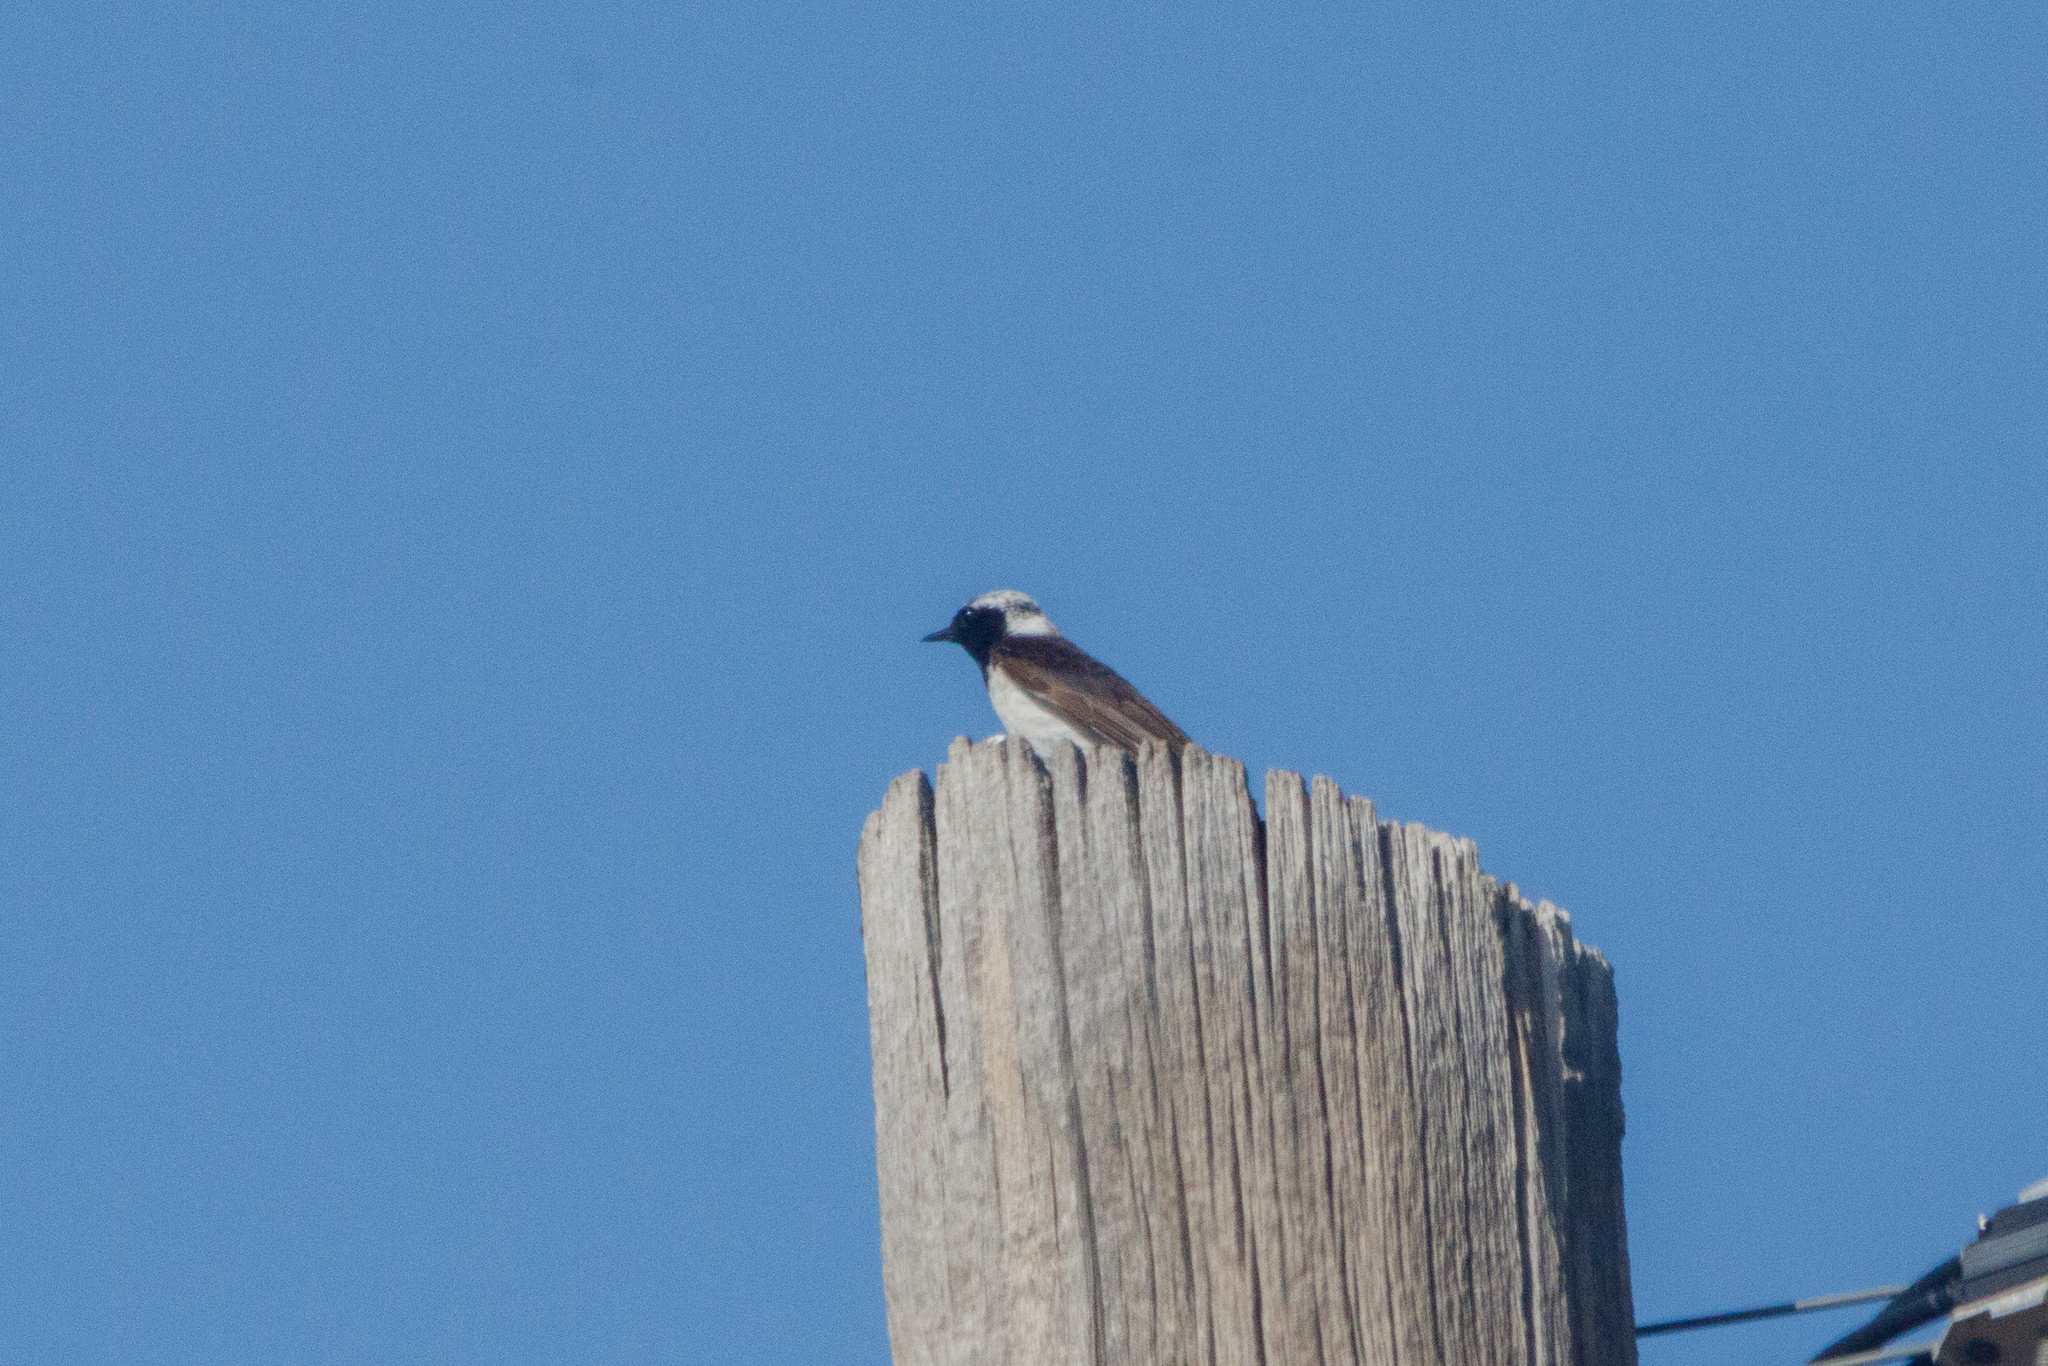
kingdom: Animalia
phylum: Chordata
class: Aves
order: Passeriformes
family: Muscicapidae
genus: Oenanthe
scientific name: Oenanthe pleschanka
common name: Pied wheatear
